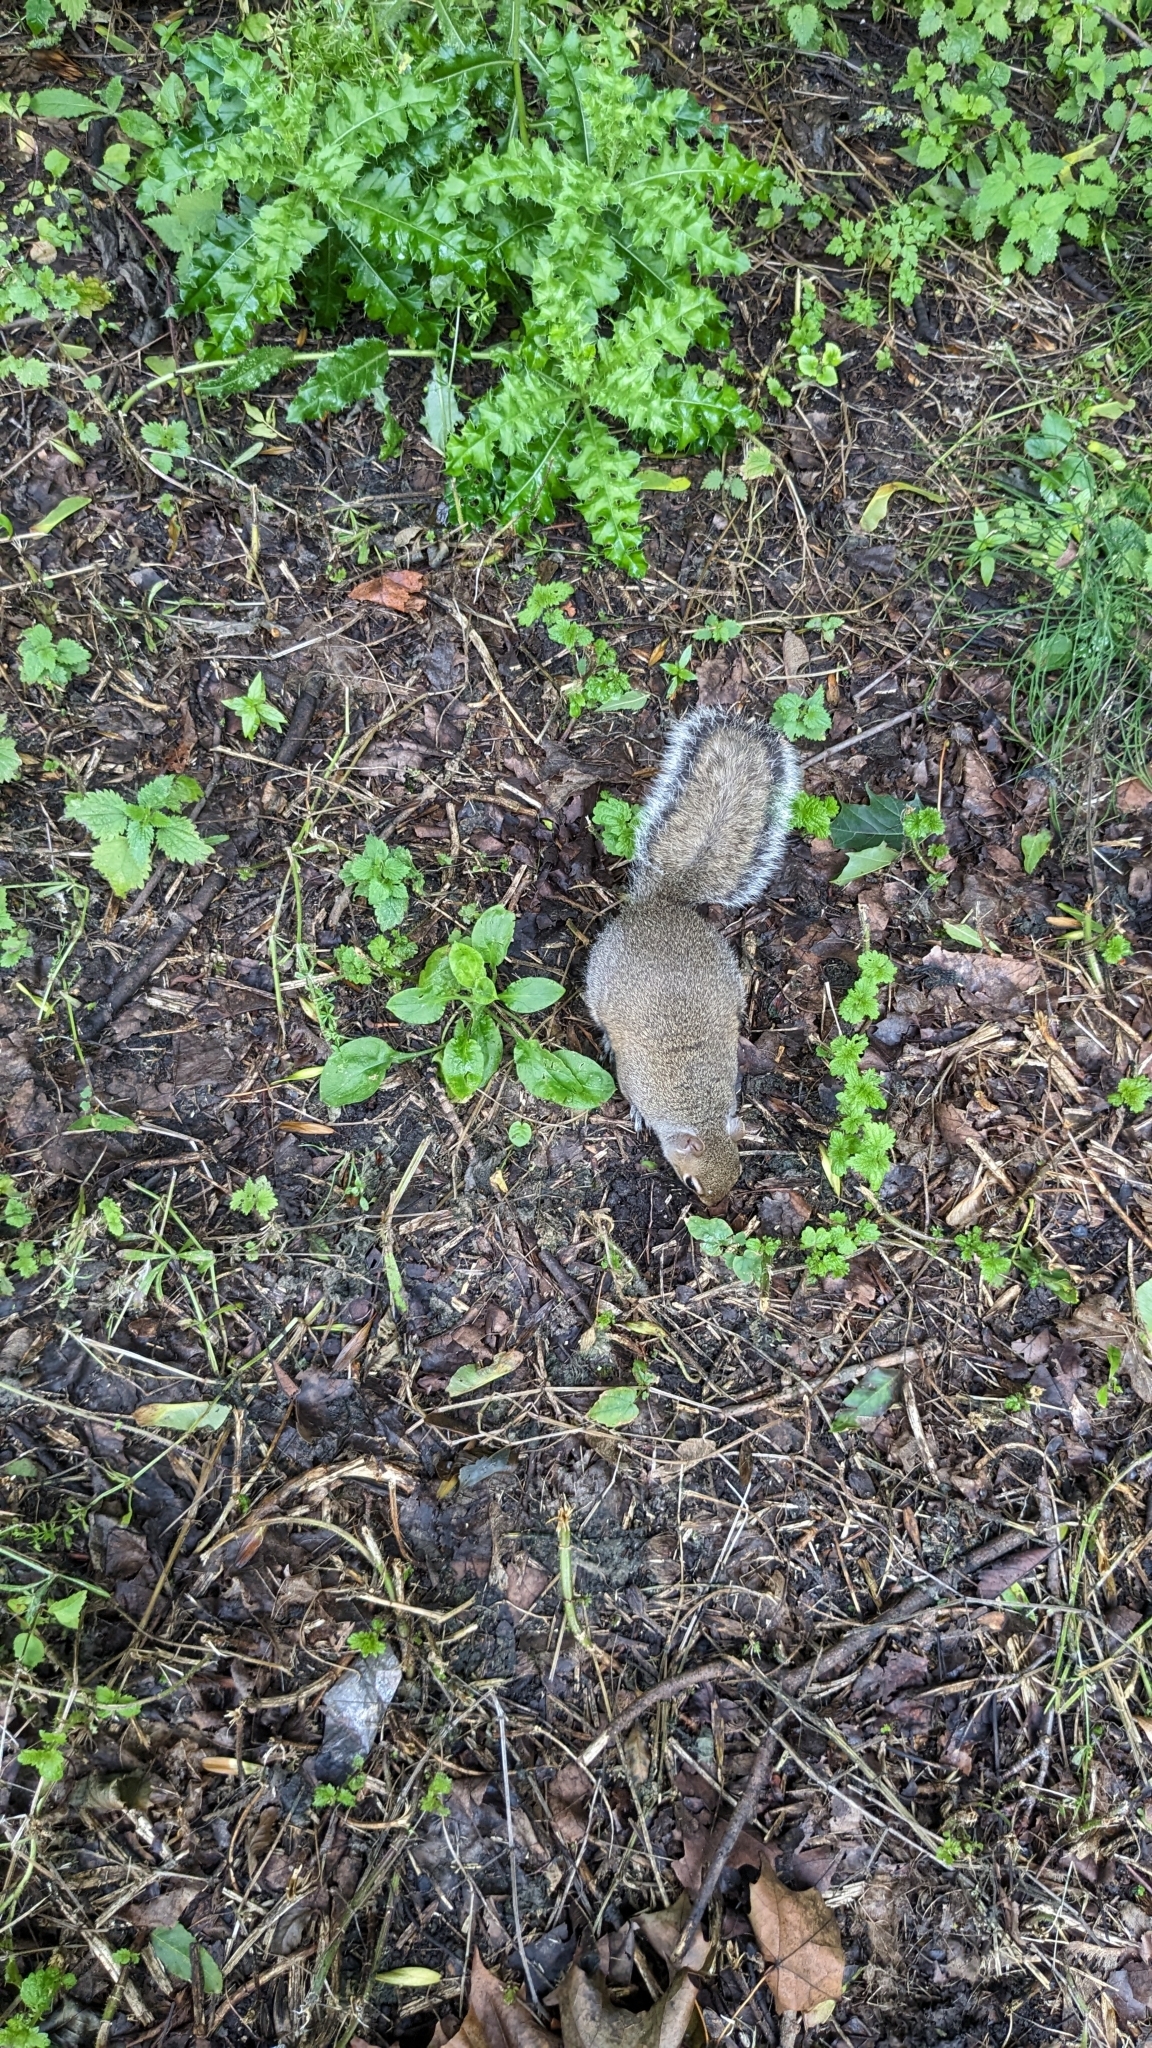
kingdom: Animalia
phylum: Chordata
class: Mammalia
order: Rodentia
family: Sciuridae
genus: Sciurus
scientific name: Sciurus carolinensis
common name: Eastern gray squirrel
